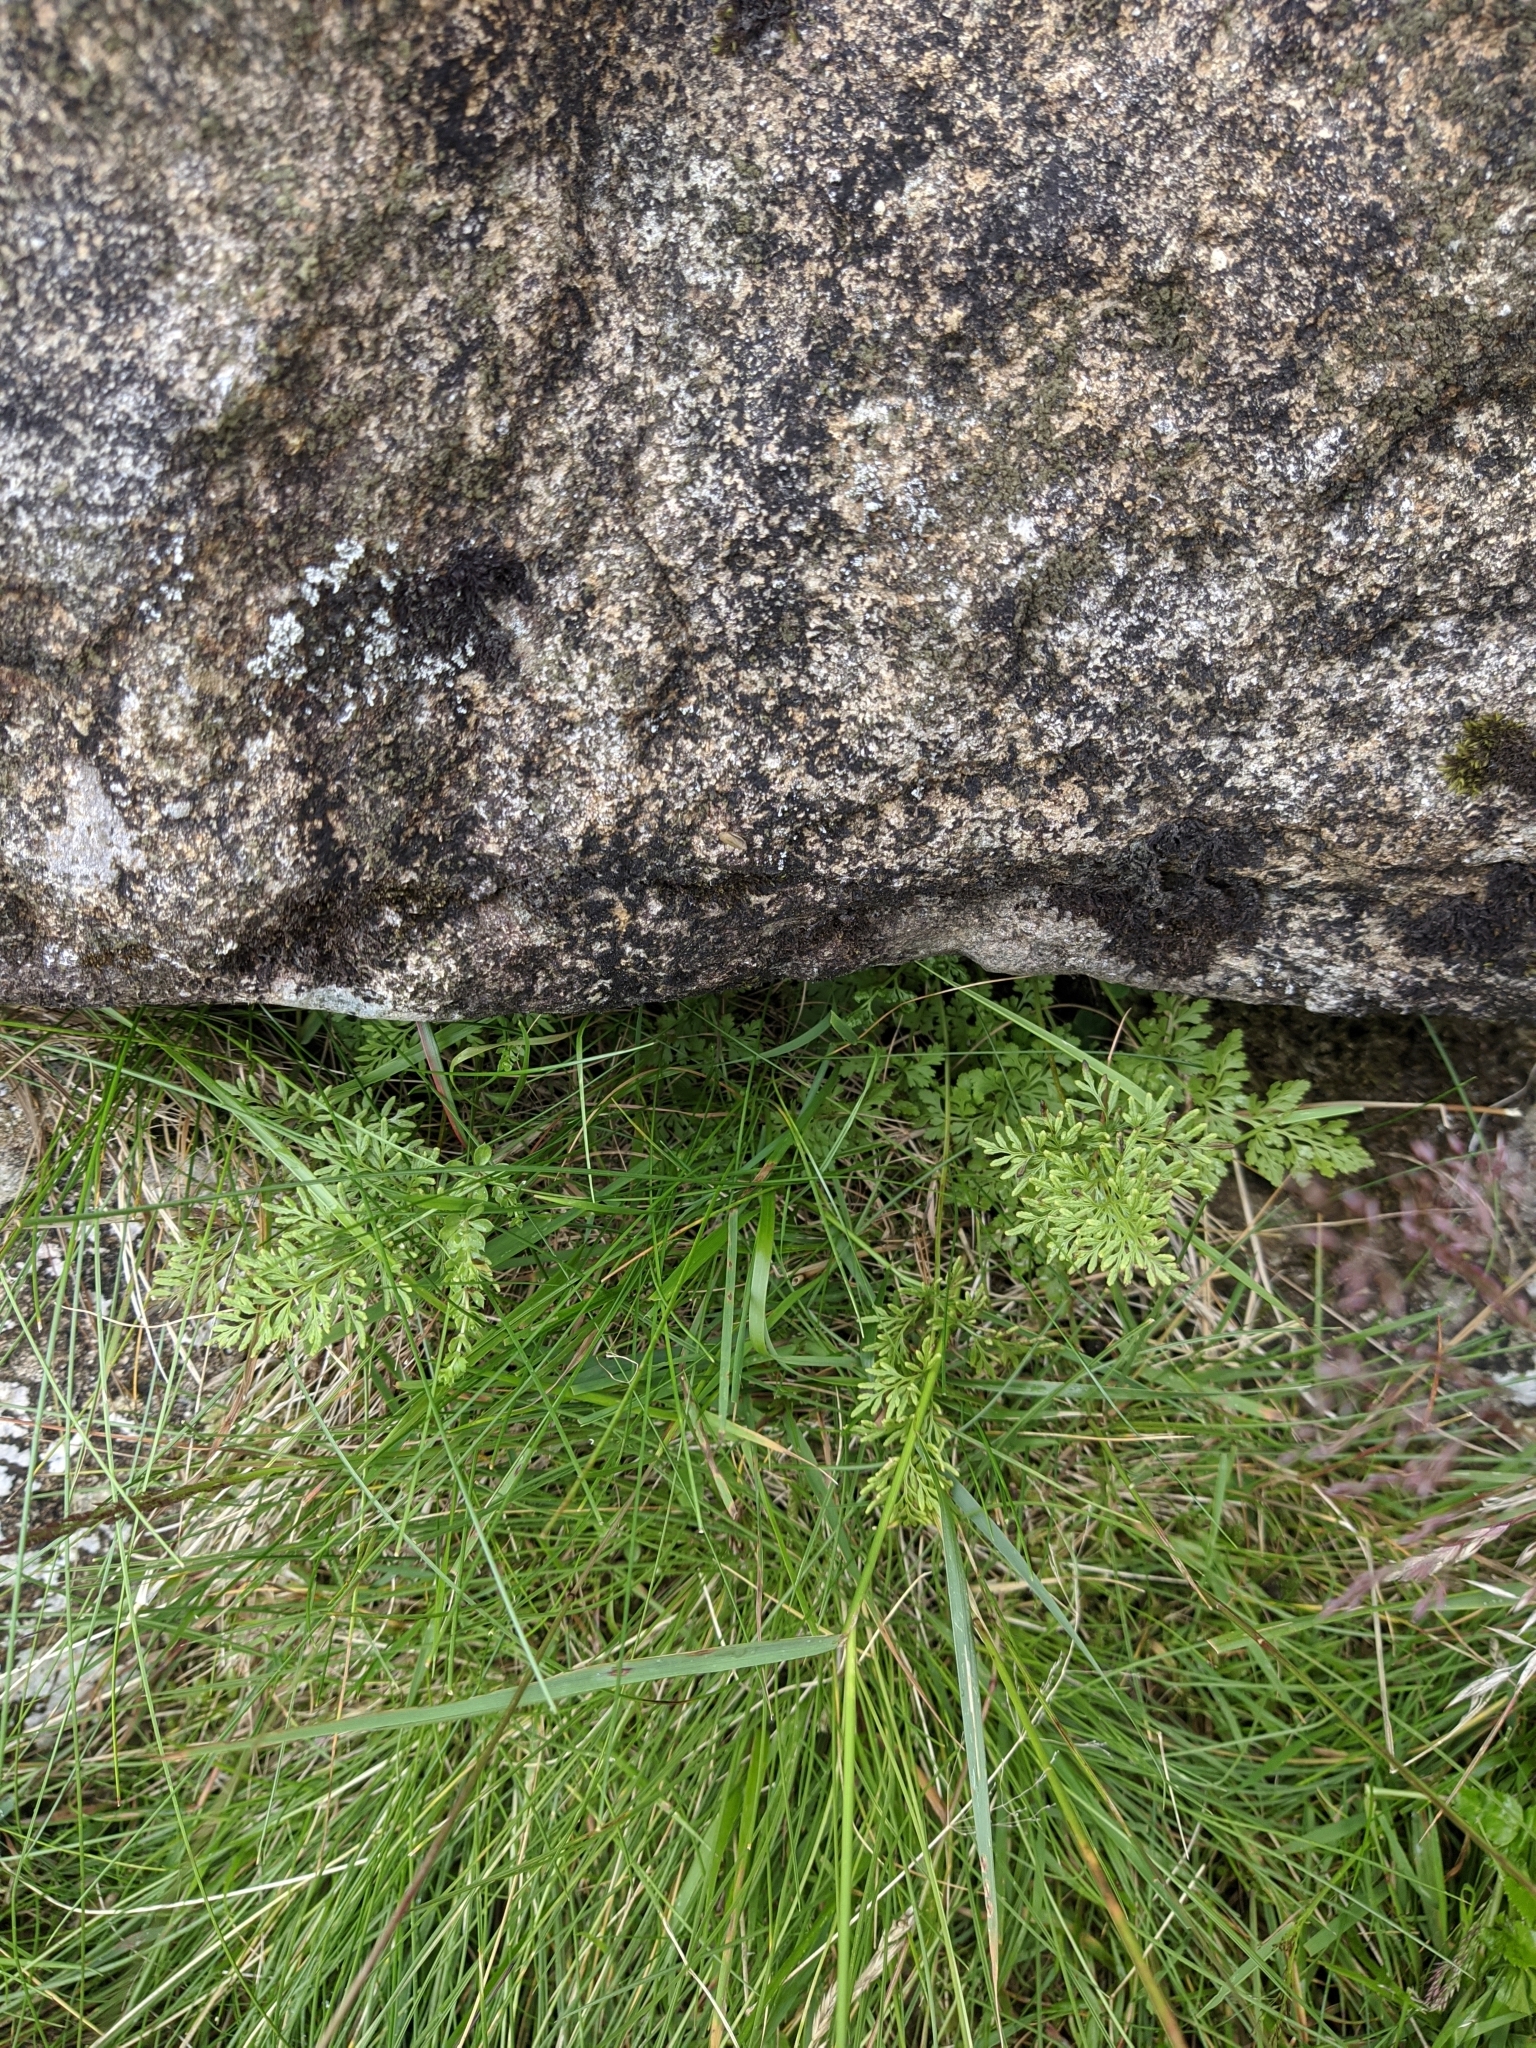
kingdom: Plantae
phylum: Tracheophyta
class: Polypodiopsida
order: Polypodiales
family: Pteridaceae
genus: Cryptogramma
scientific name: Cryptogramma crispa
